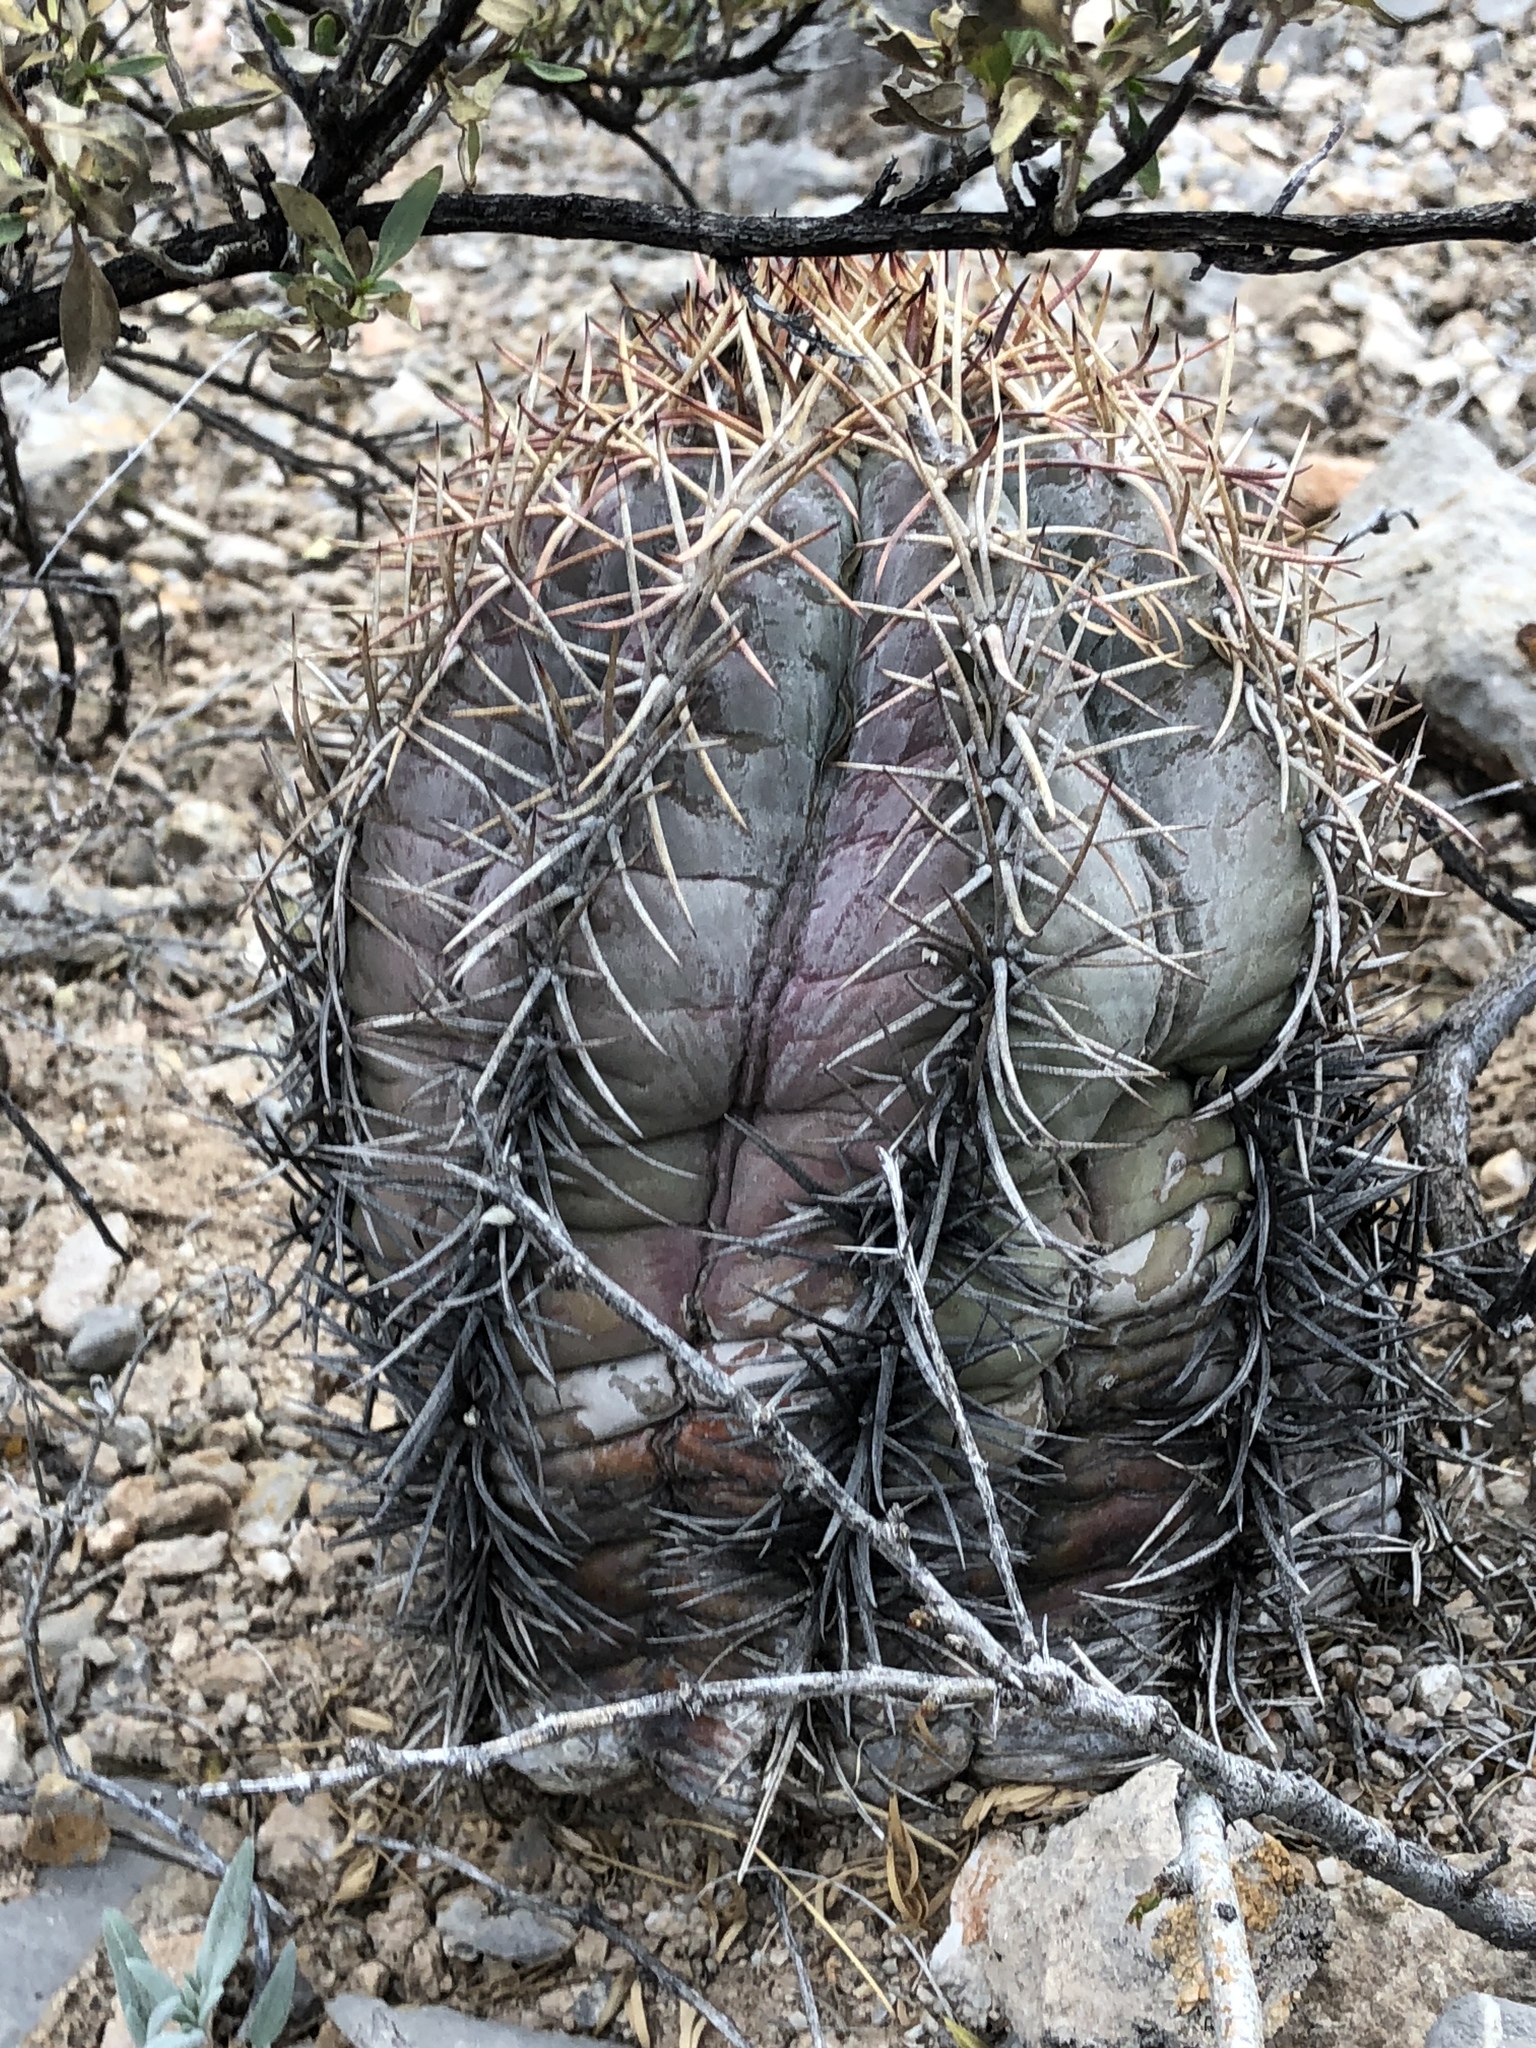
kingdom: Plantae
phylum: Tracheophyta
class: Magnoliopsida
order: Caryophyllales
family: Cactaceae
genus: Echinocactus
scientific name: Echinocactus horizonthalonius
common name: Devilshead
